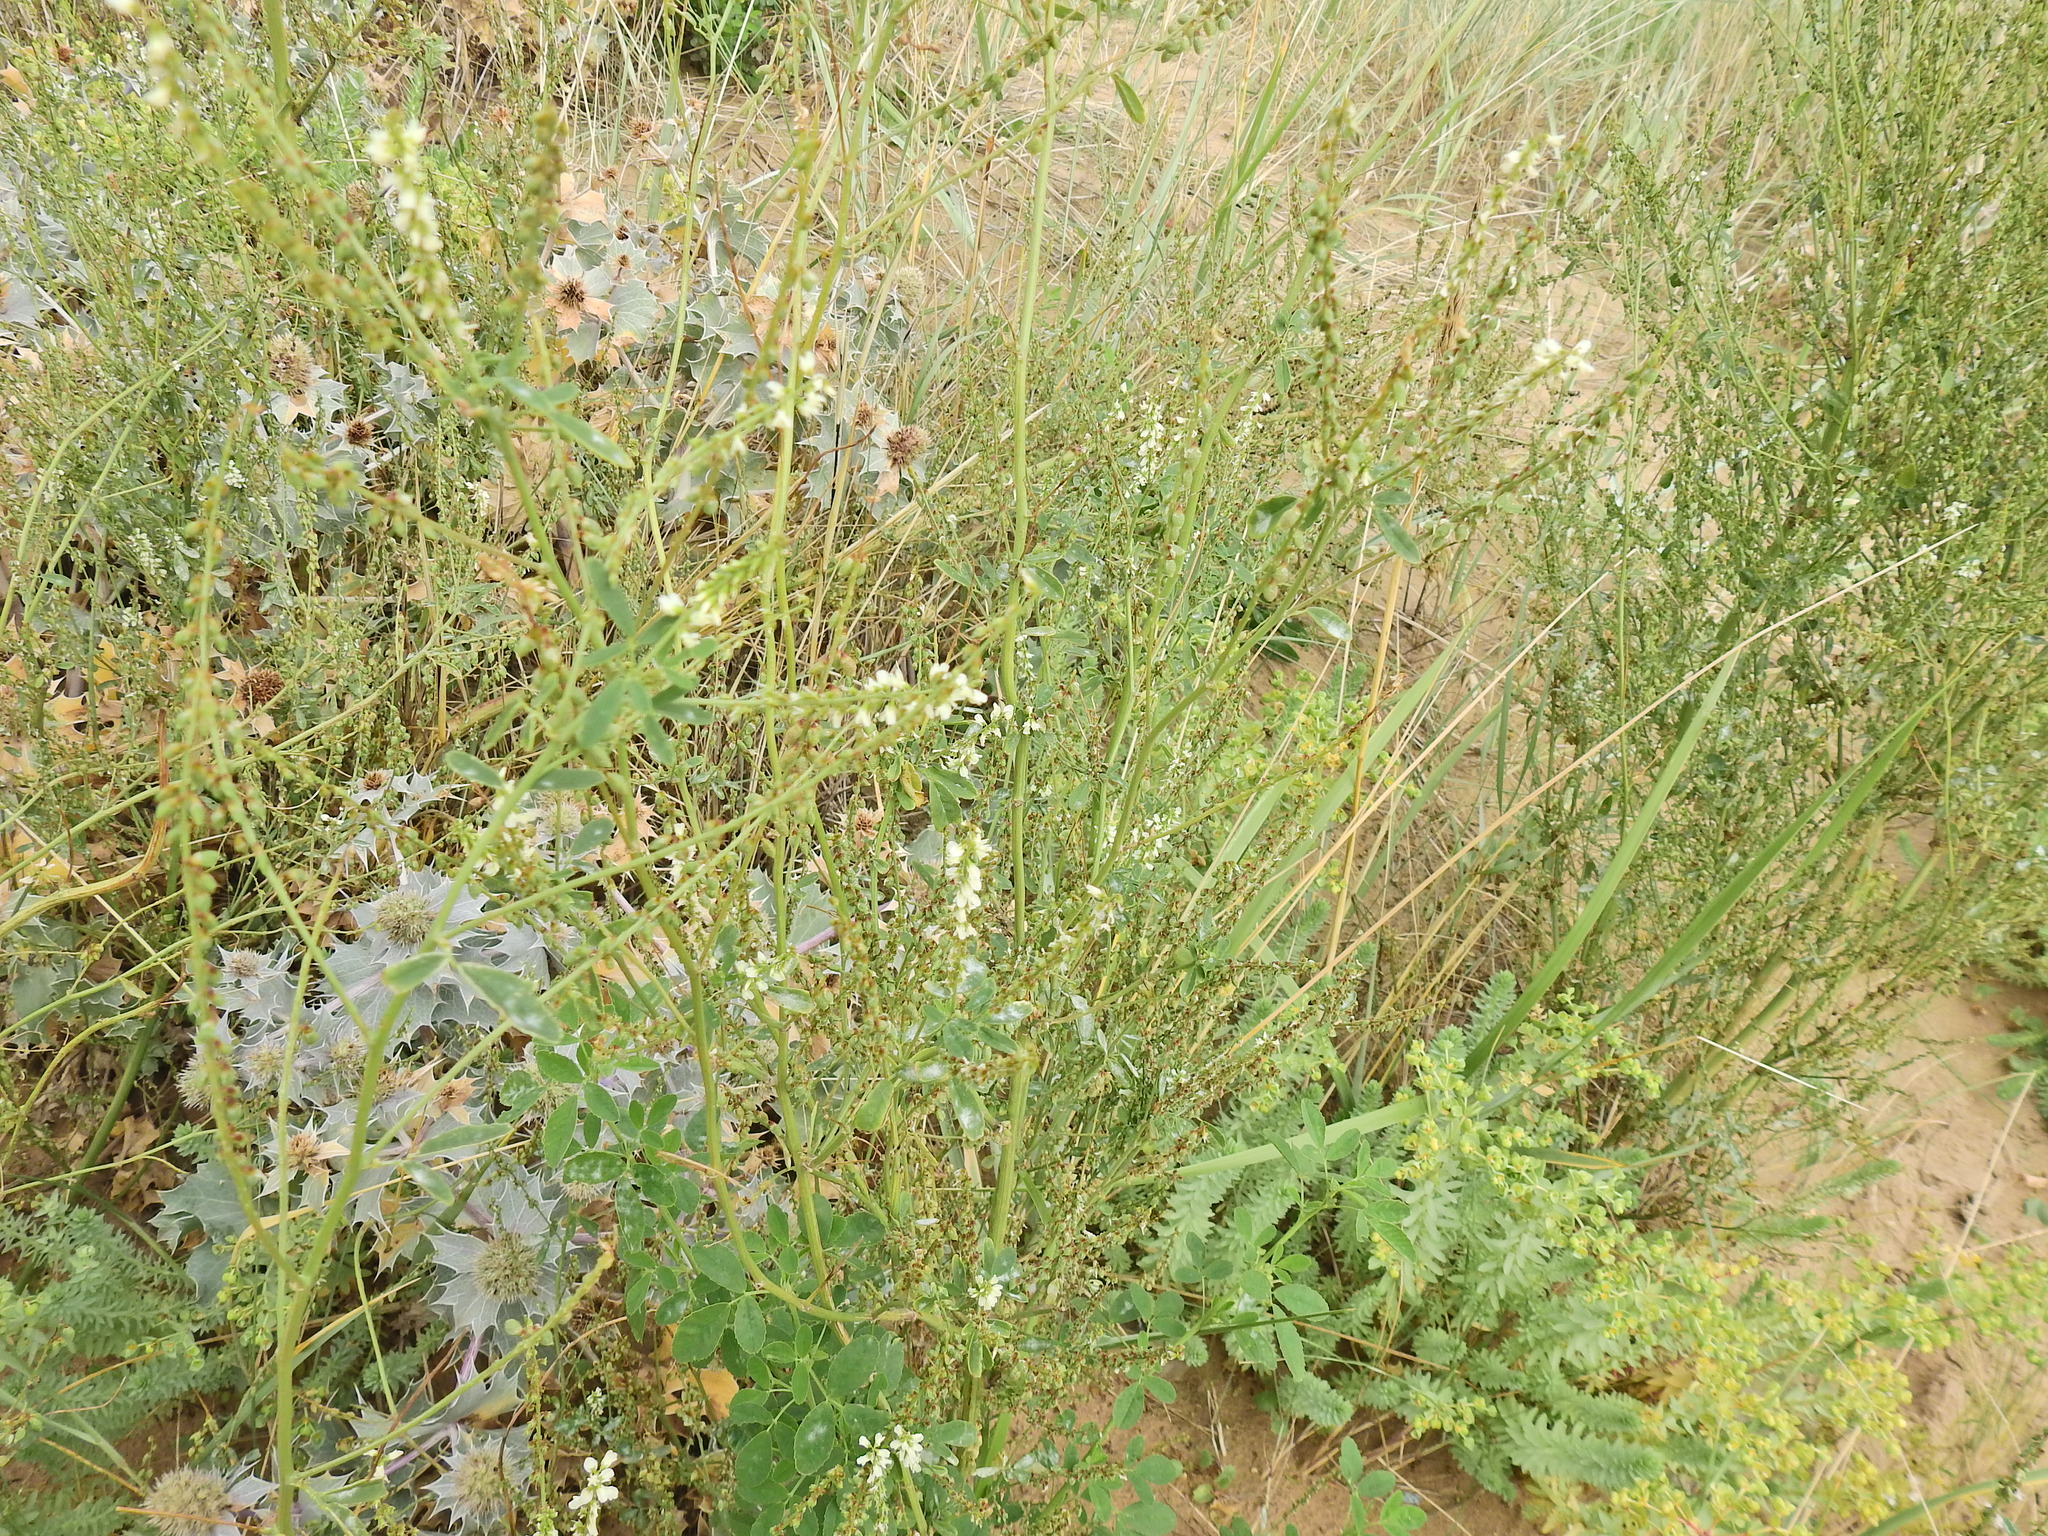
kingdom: Plantae
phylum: Tracheophyta
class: Magnoliopsida
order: Fabales
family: Fabaceae
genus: Melilotus
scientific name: Melilotus albus
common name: White melilot
